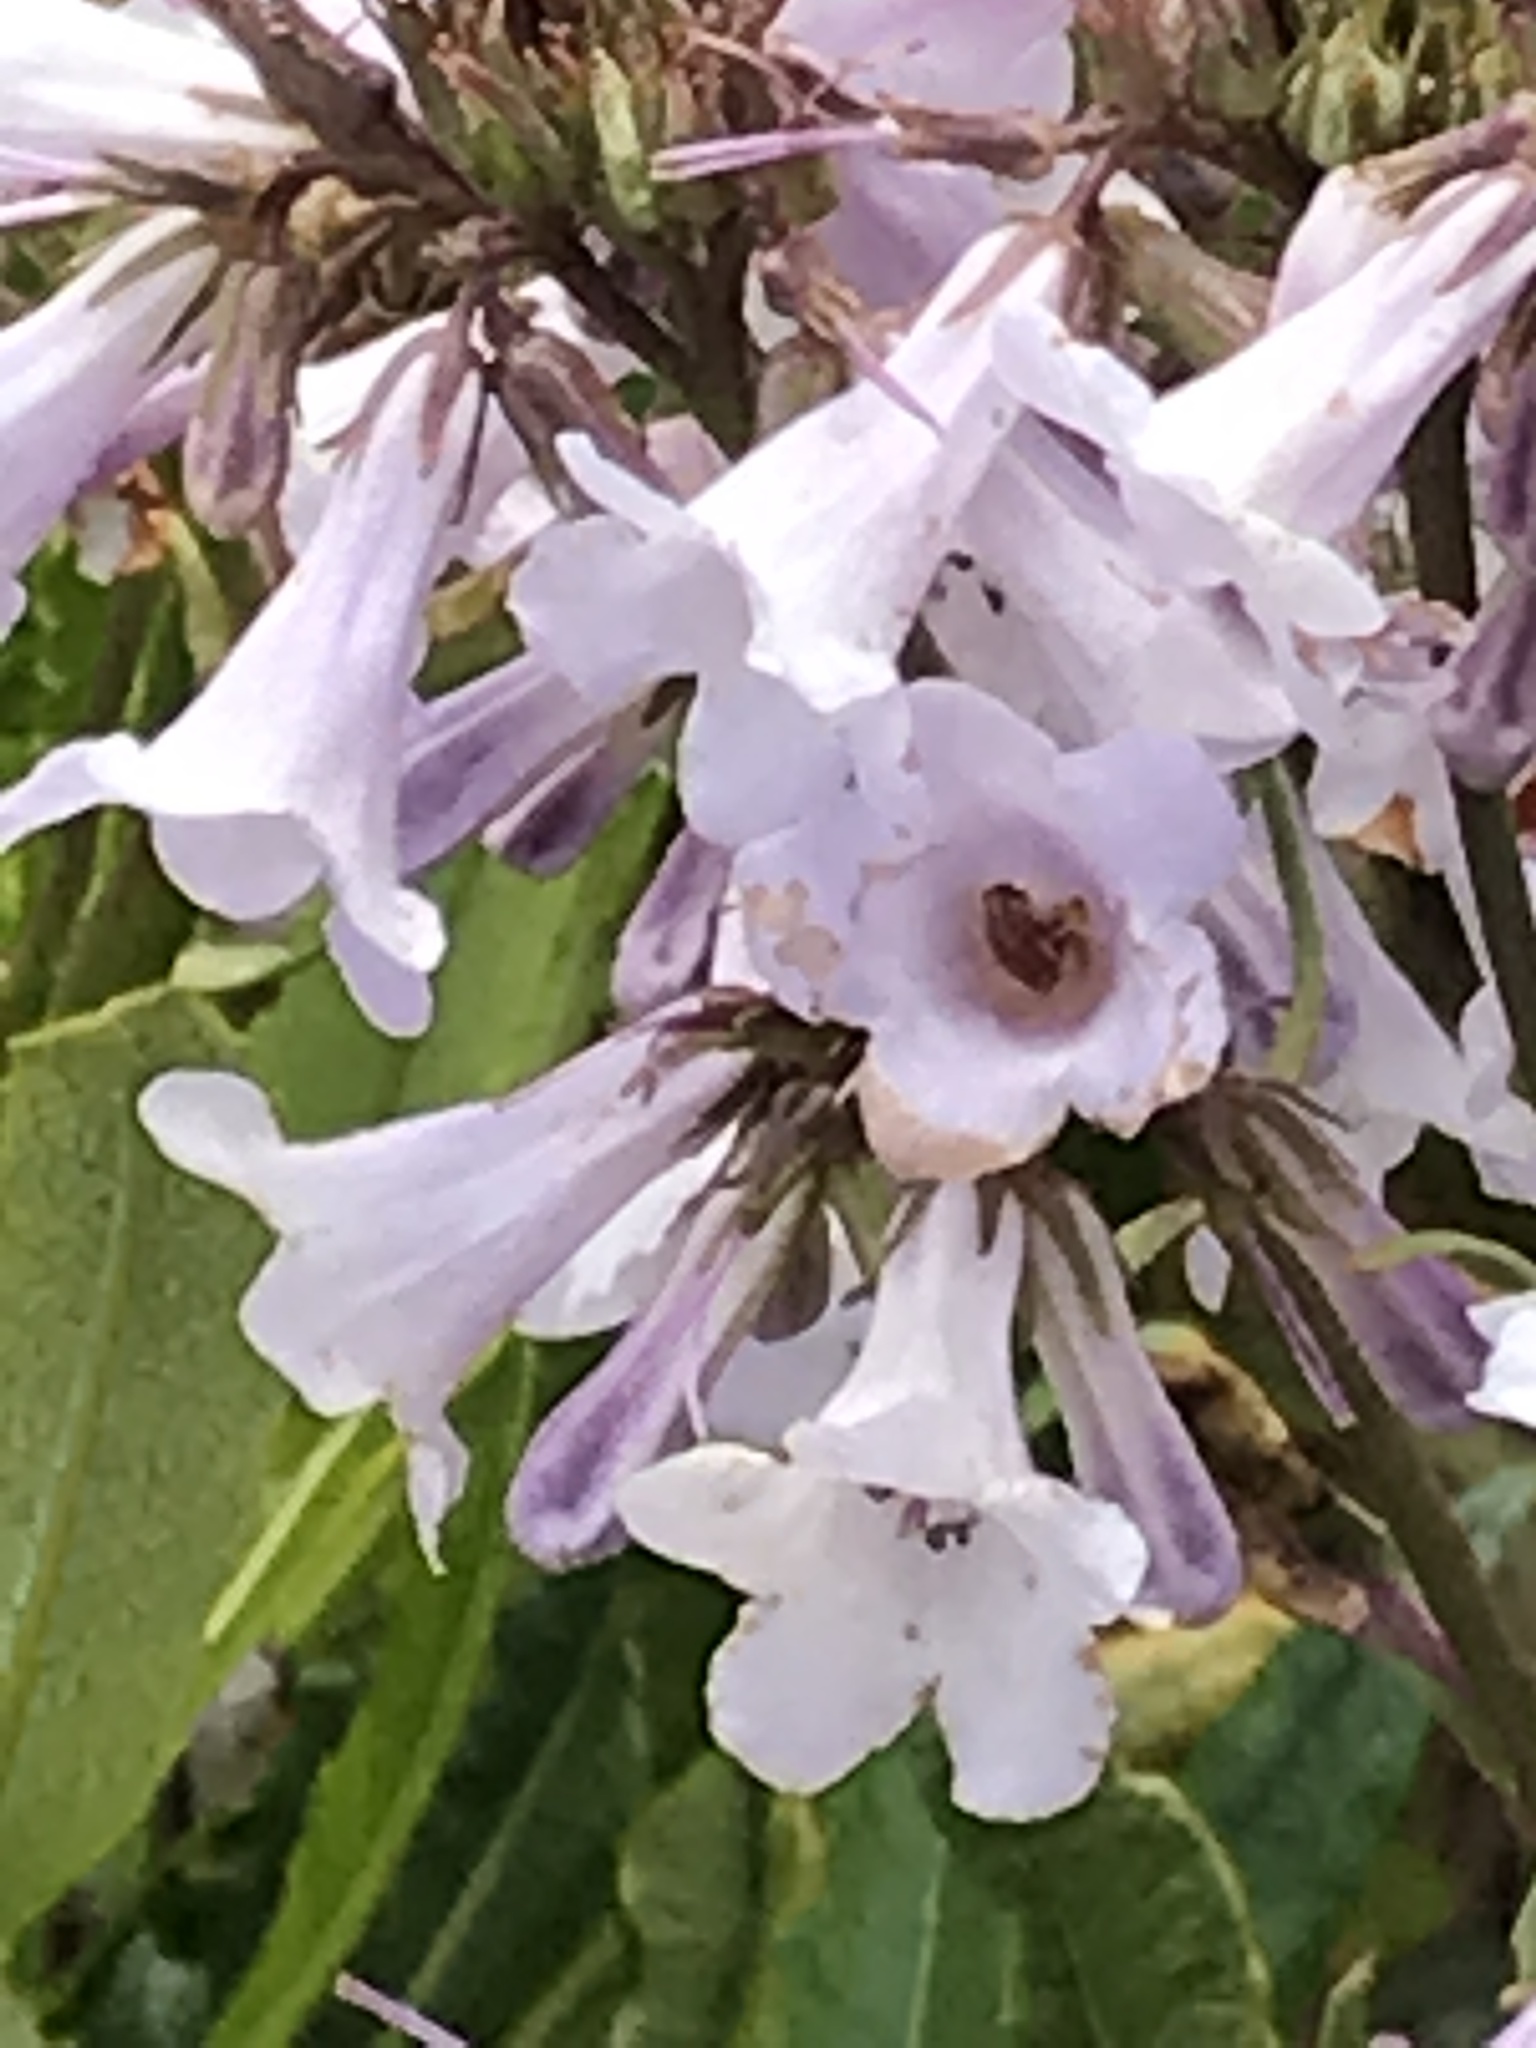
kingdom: Plantae
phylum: Tracheophyta
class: Magnoliopsida
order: Boraginales
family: Namaceae
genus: Eriodictyon
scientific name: Eriodictyon californicum
